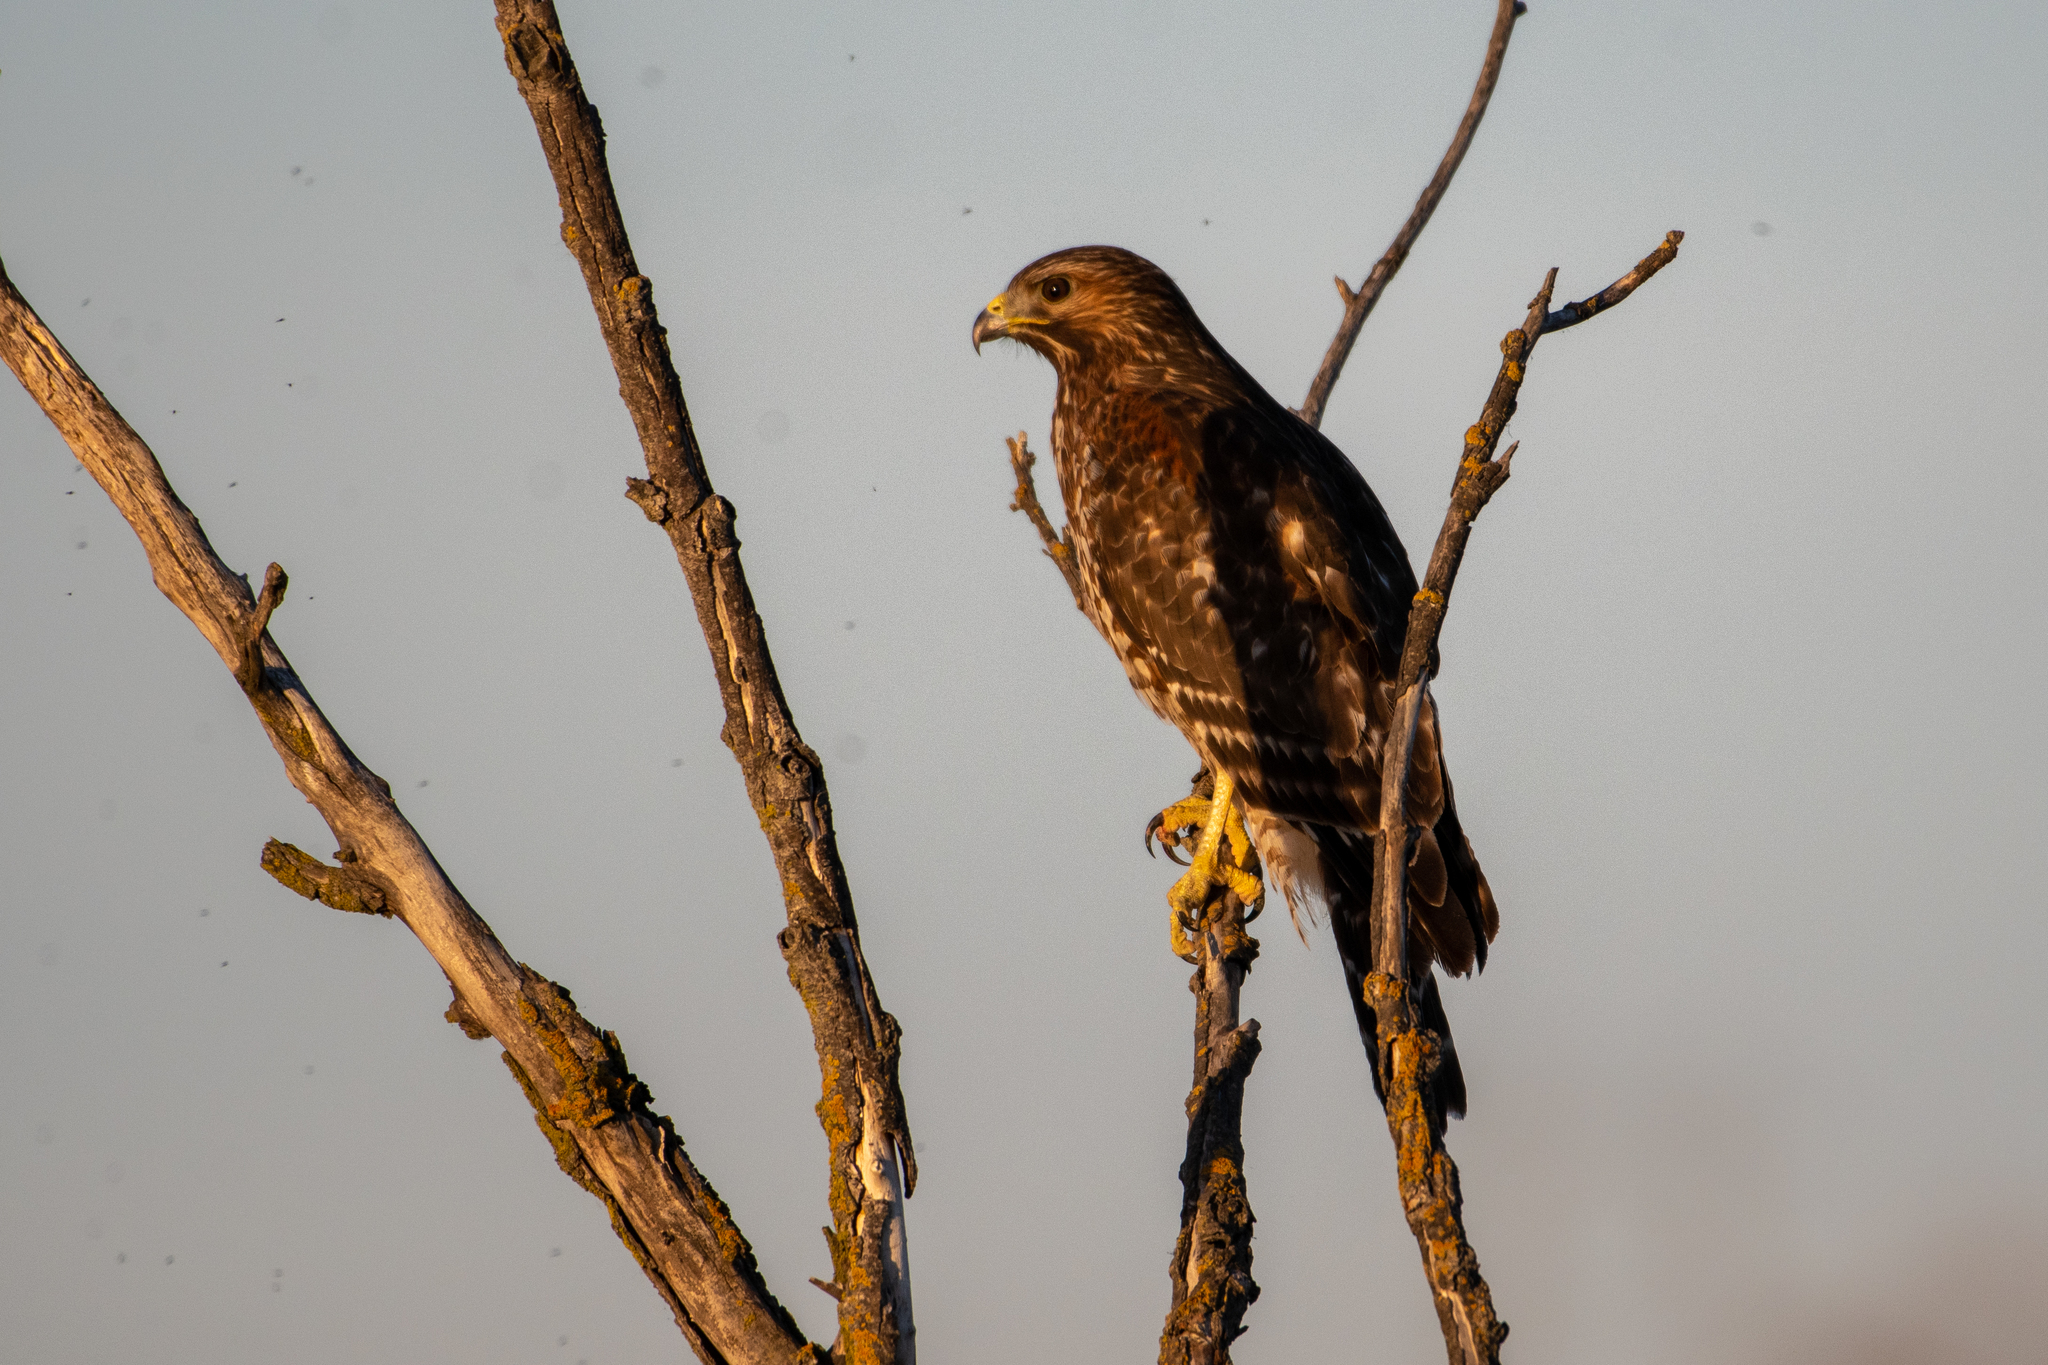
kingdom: Animalia
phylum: Chordata
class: Aves
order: Accipitriformes
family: Accipitridae
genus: Buteo
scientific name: Buteo lineatus
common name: Red-shouldered hawk
